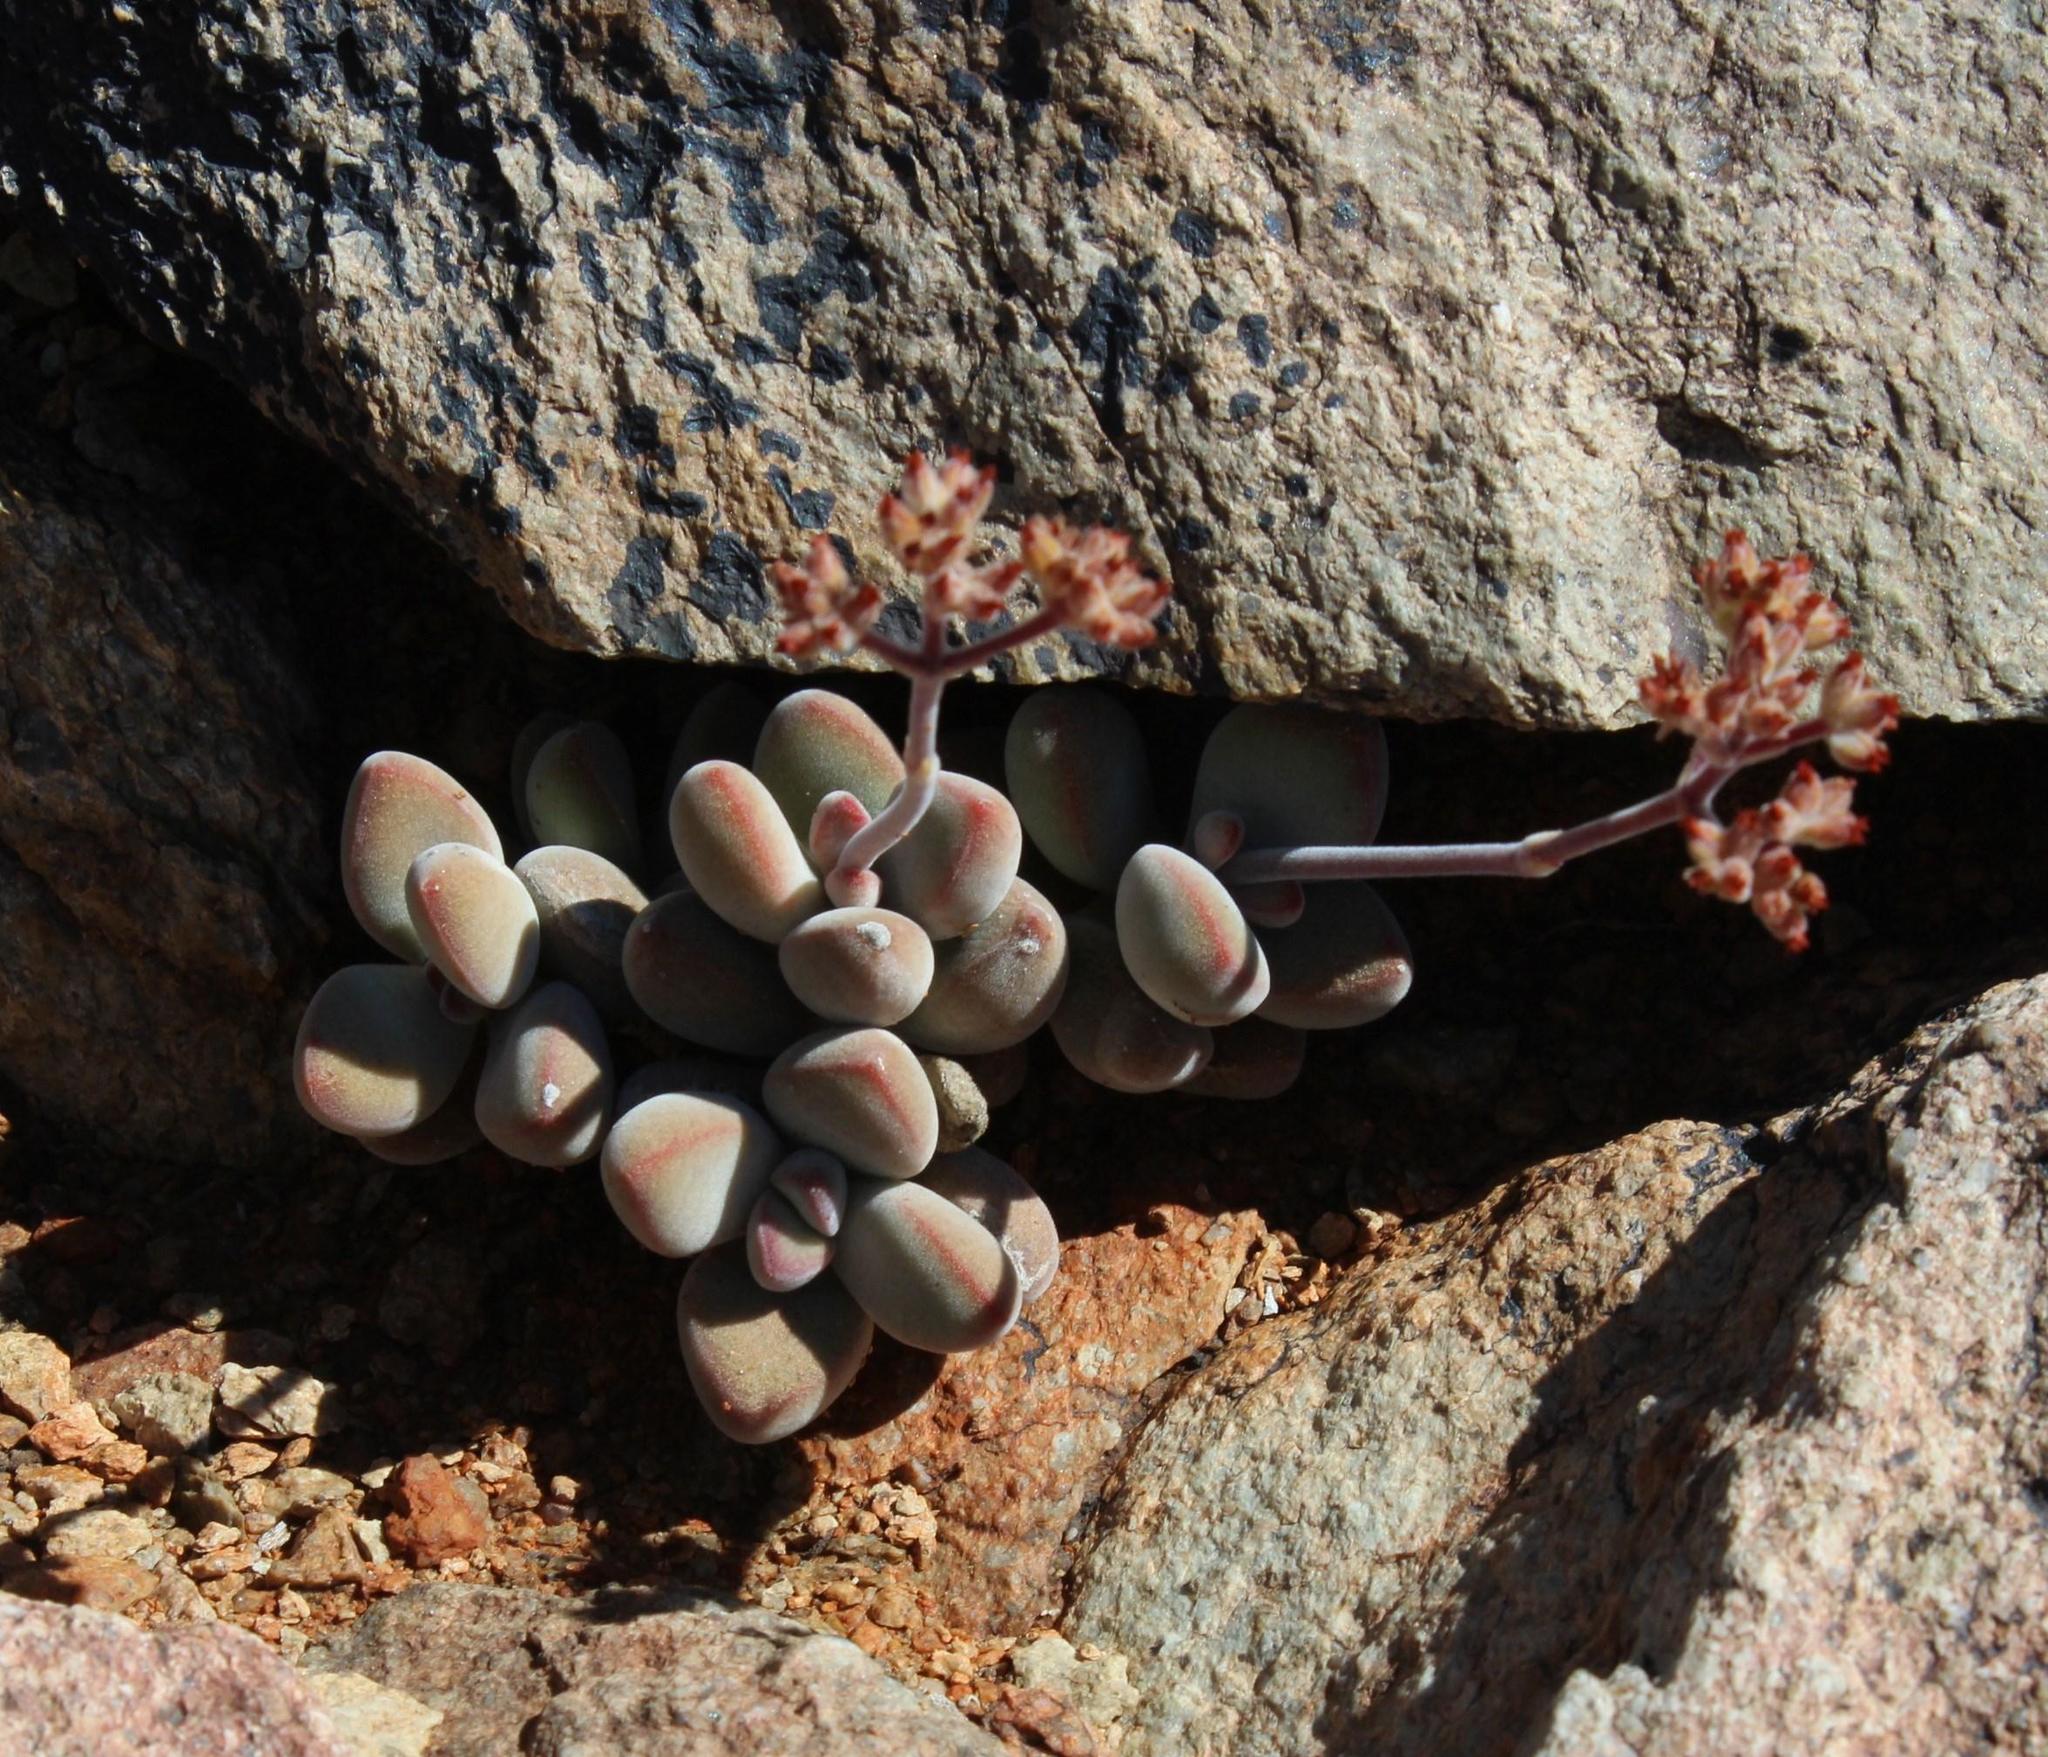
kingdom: Plantae
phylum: Tracheophyta
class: Magnoliopsida
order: Saxifragales
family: Crassulaceae
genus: Crassula
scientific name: Crassula sericea
